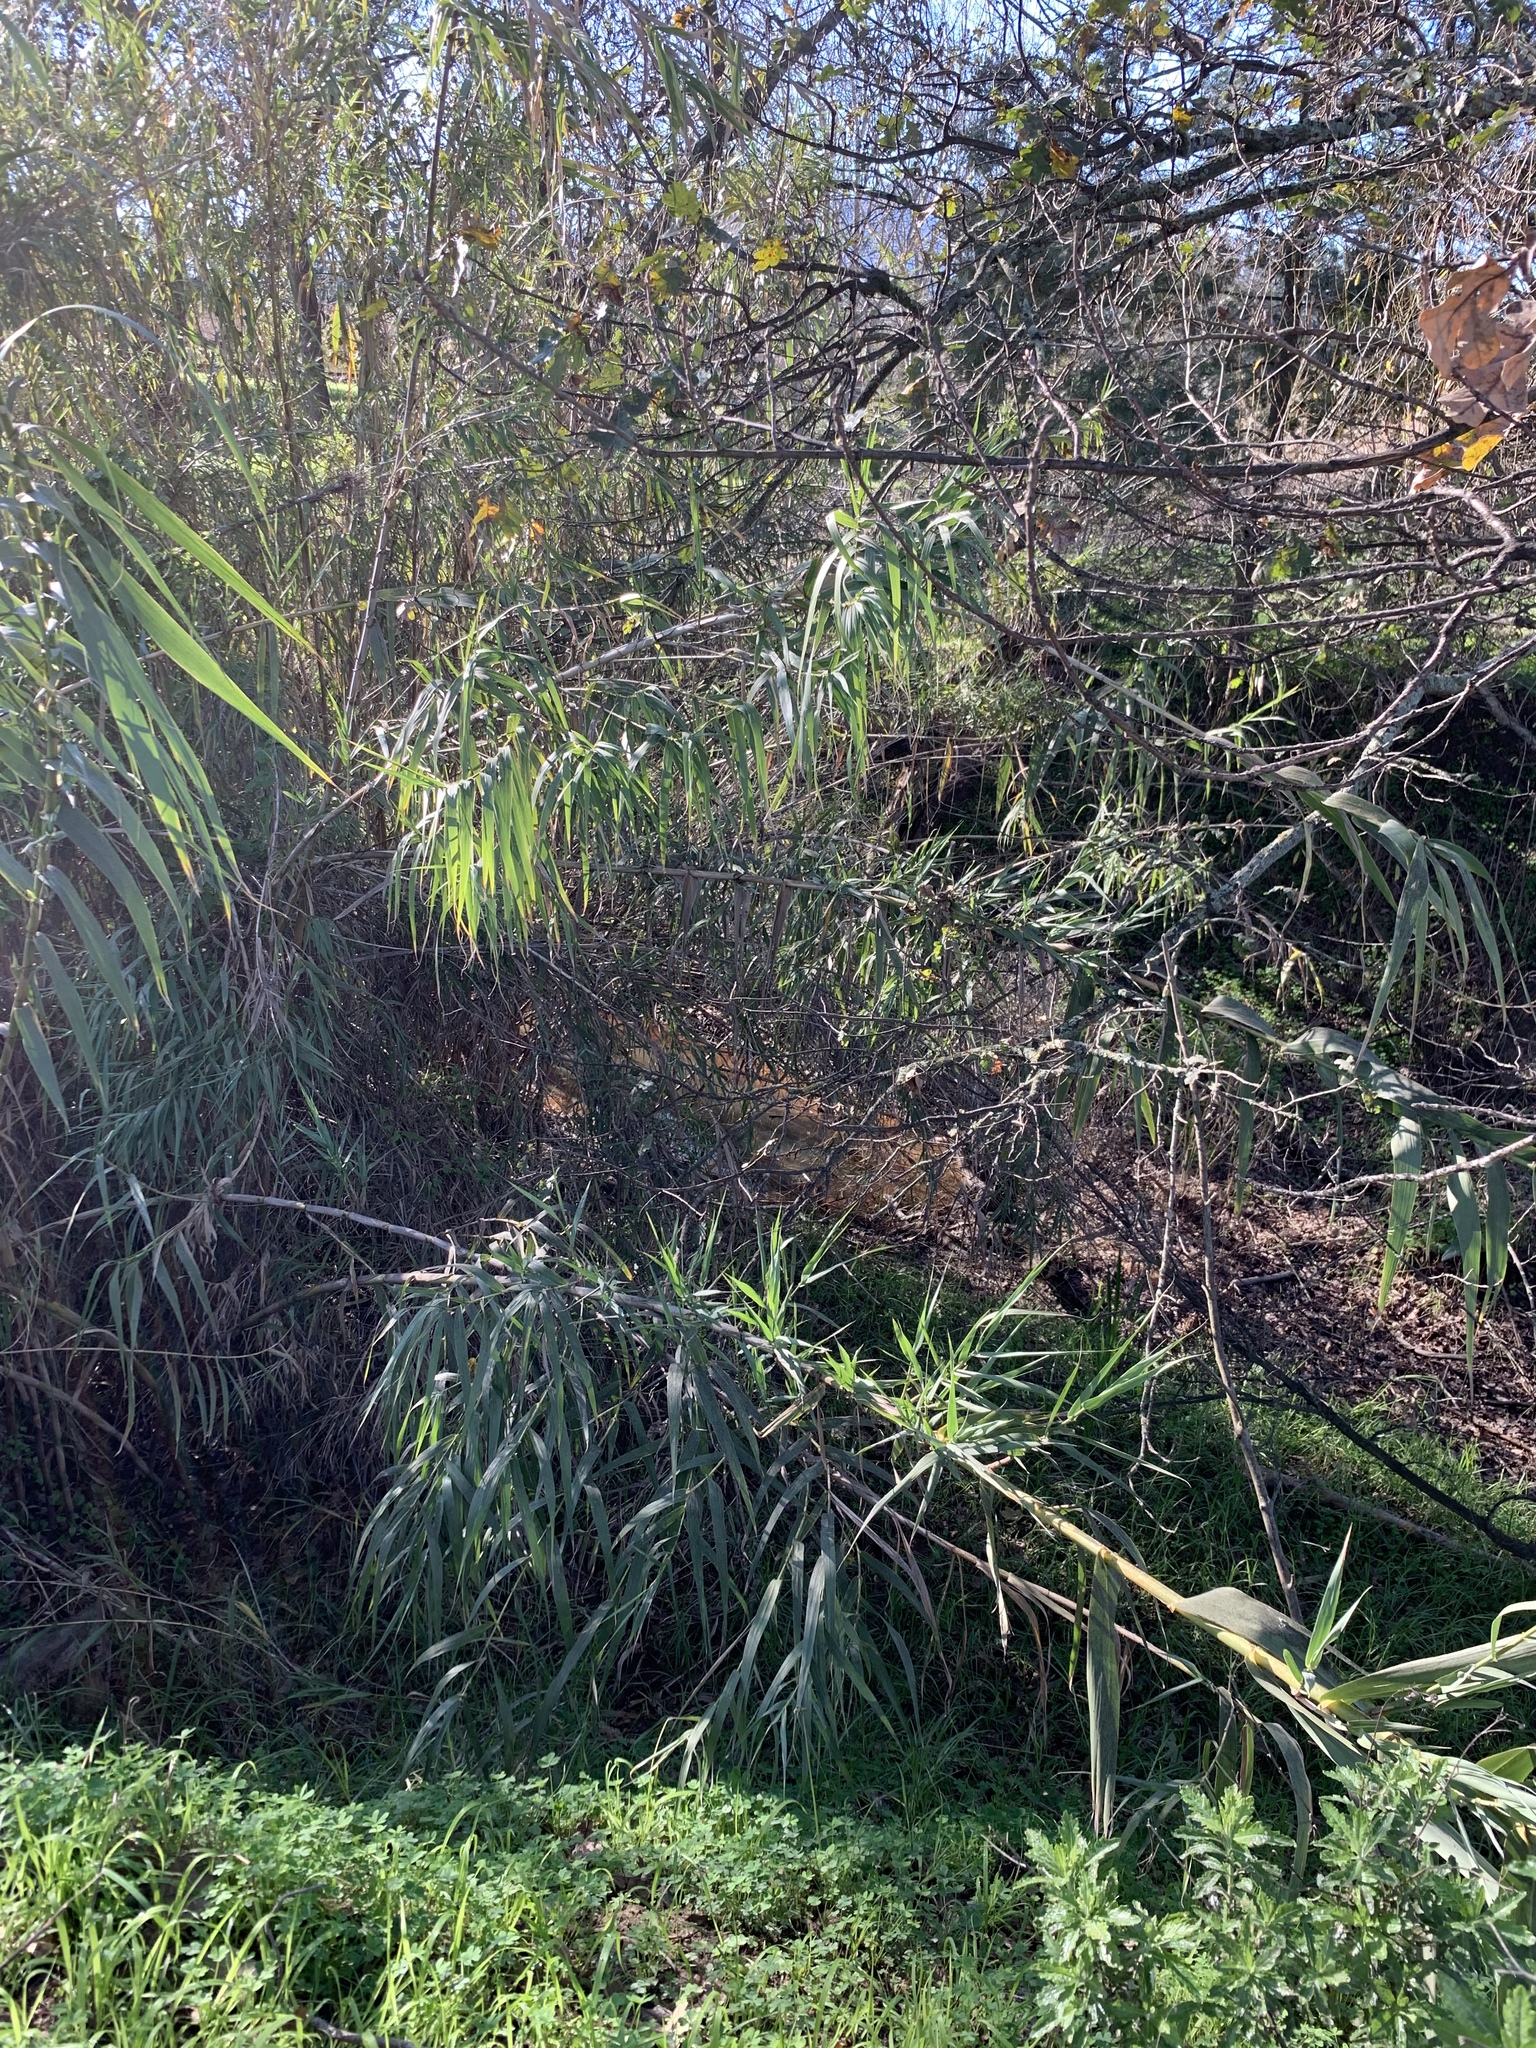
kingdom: Plantae
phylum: Tracheophyta
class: Liliopsida
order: Poales
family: Poaceae
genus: Arundo
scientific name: Arundo donax
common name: Giant reed
